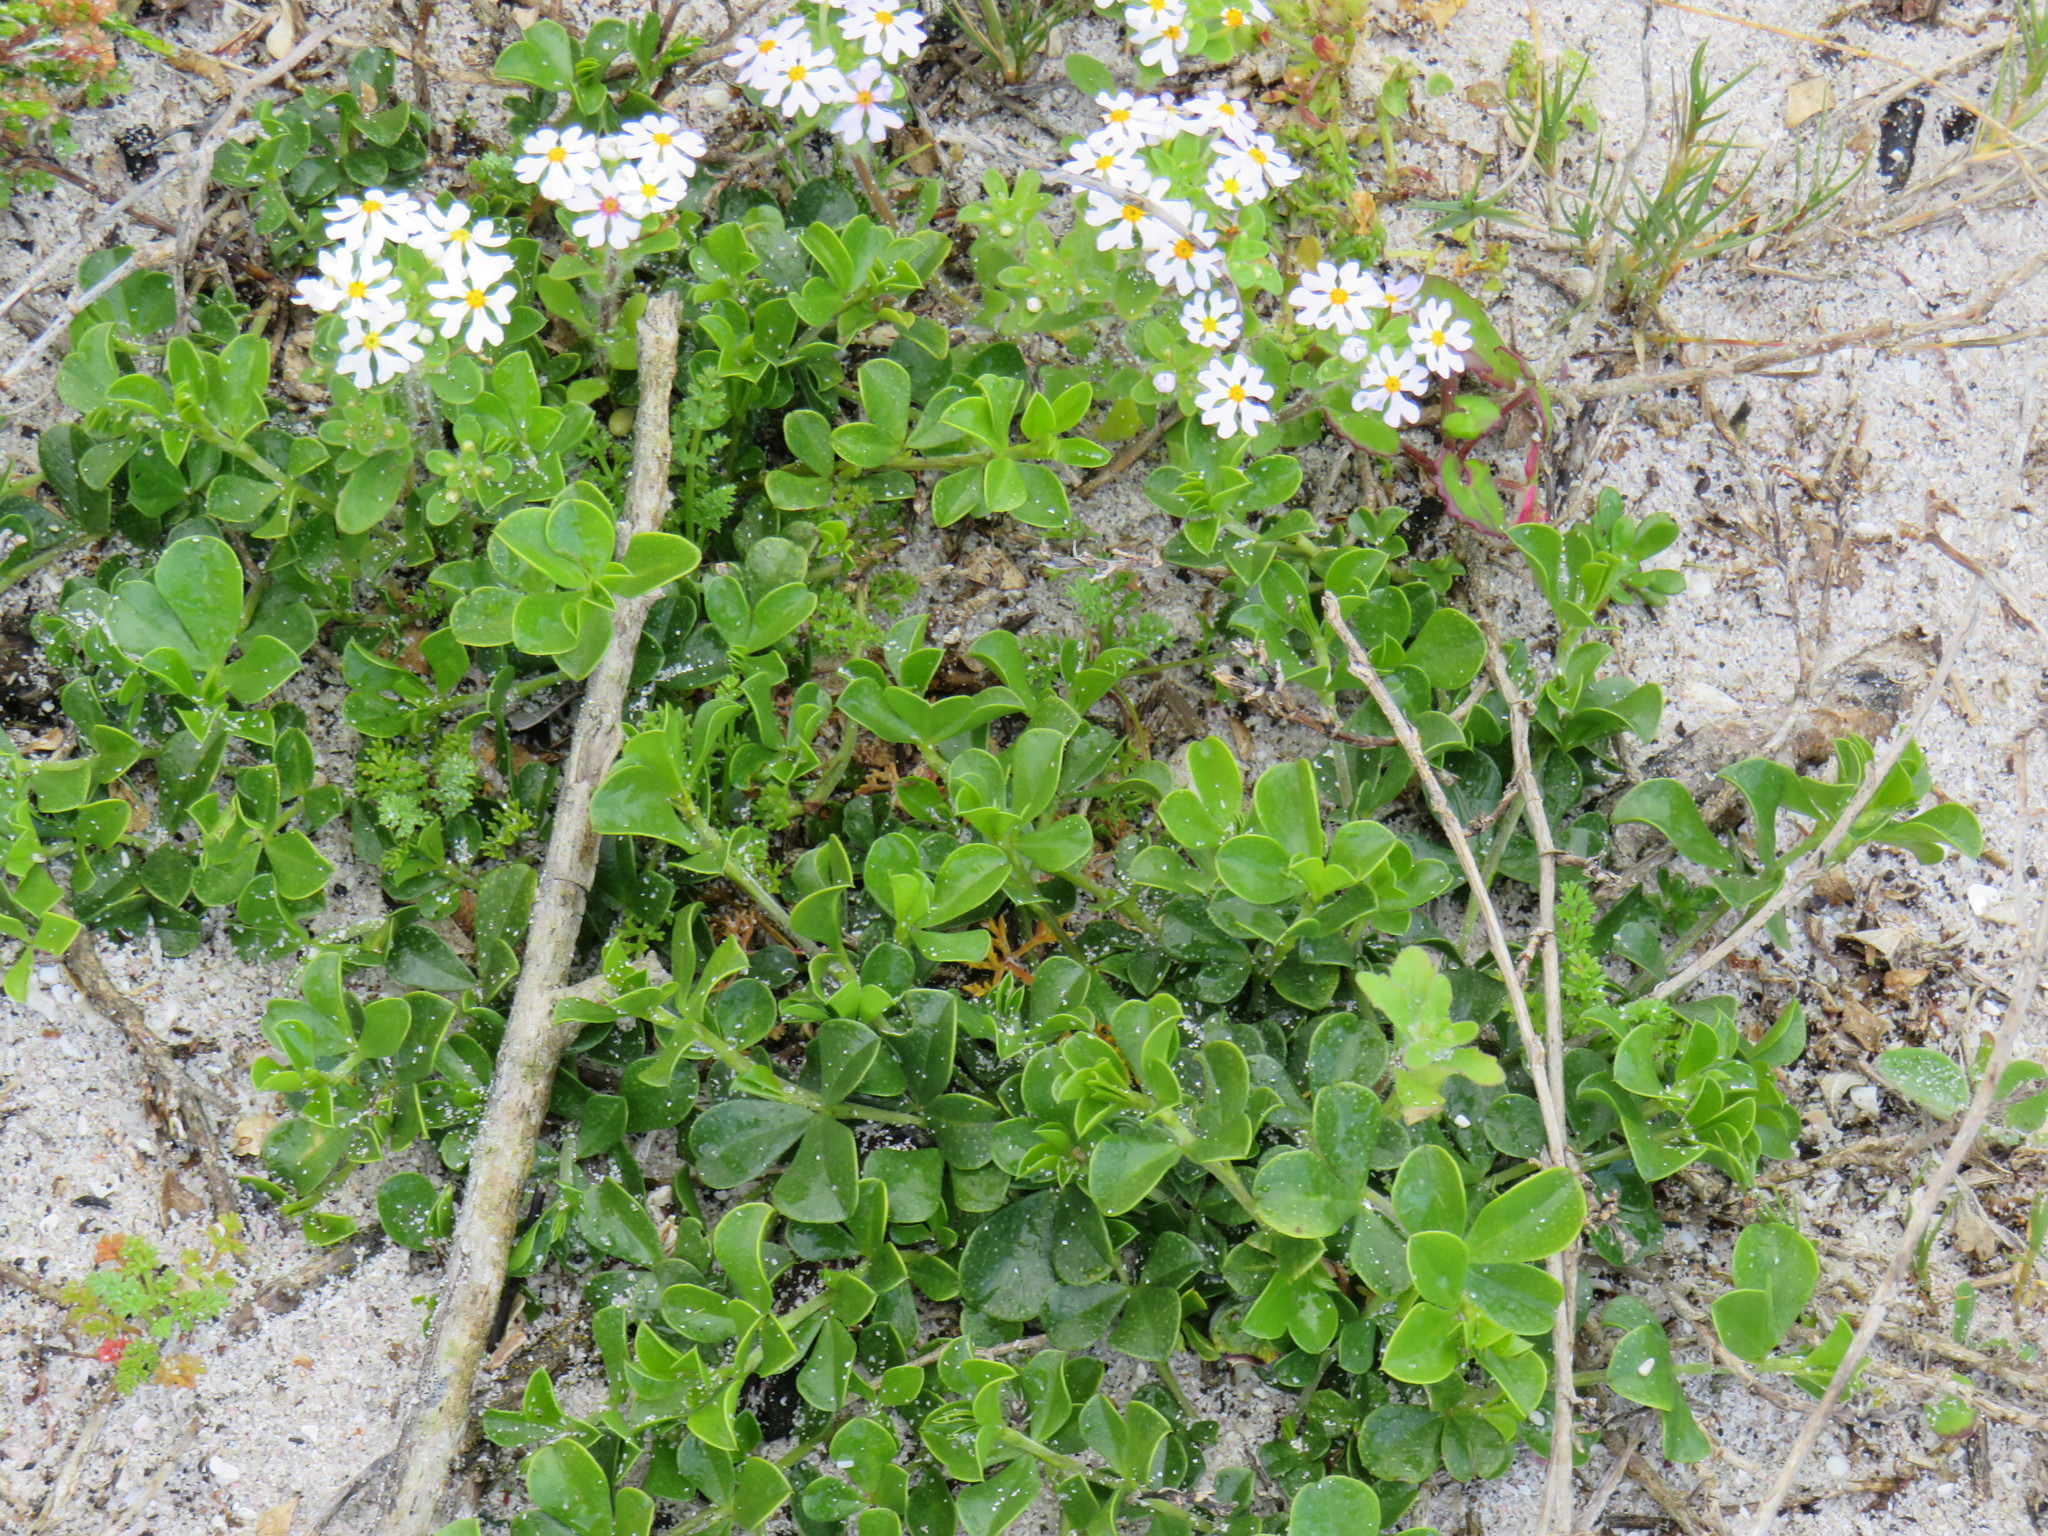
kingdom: Plantae
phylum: Tracheophyta
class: Magnoliopsida
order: Lamiales
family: Scrophulariaceae
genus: Zaluzianskya
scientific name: Zaluzianskya villosa
